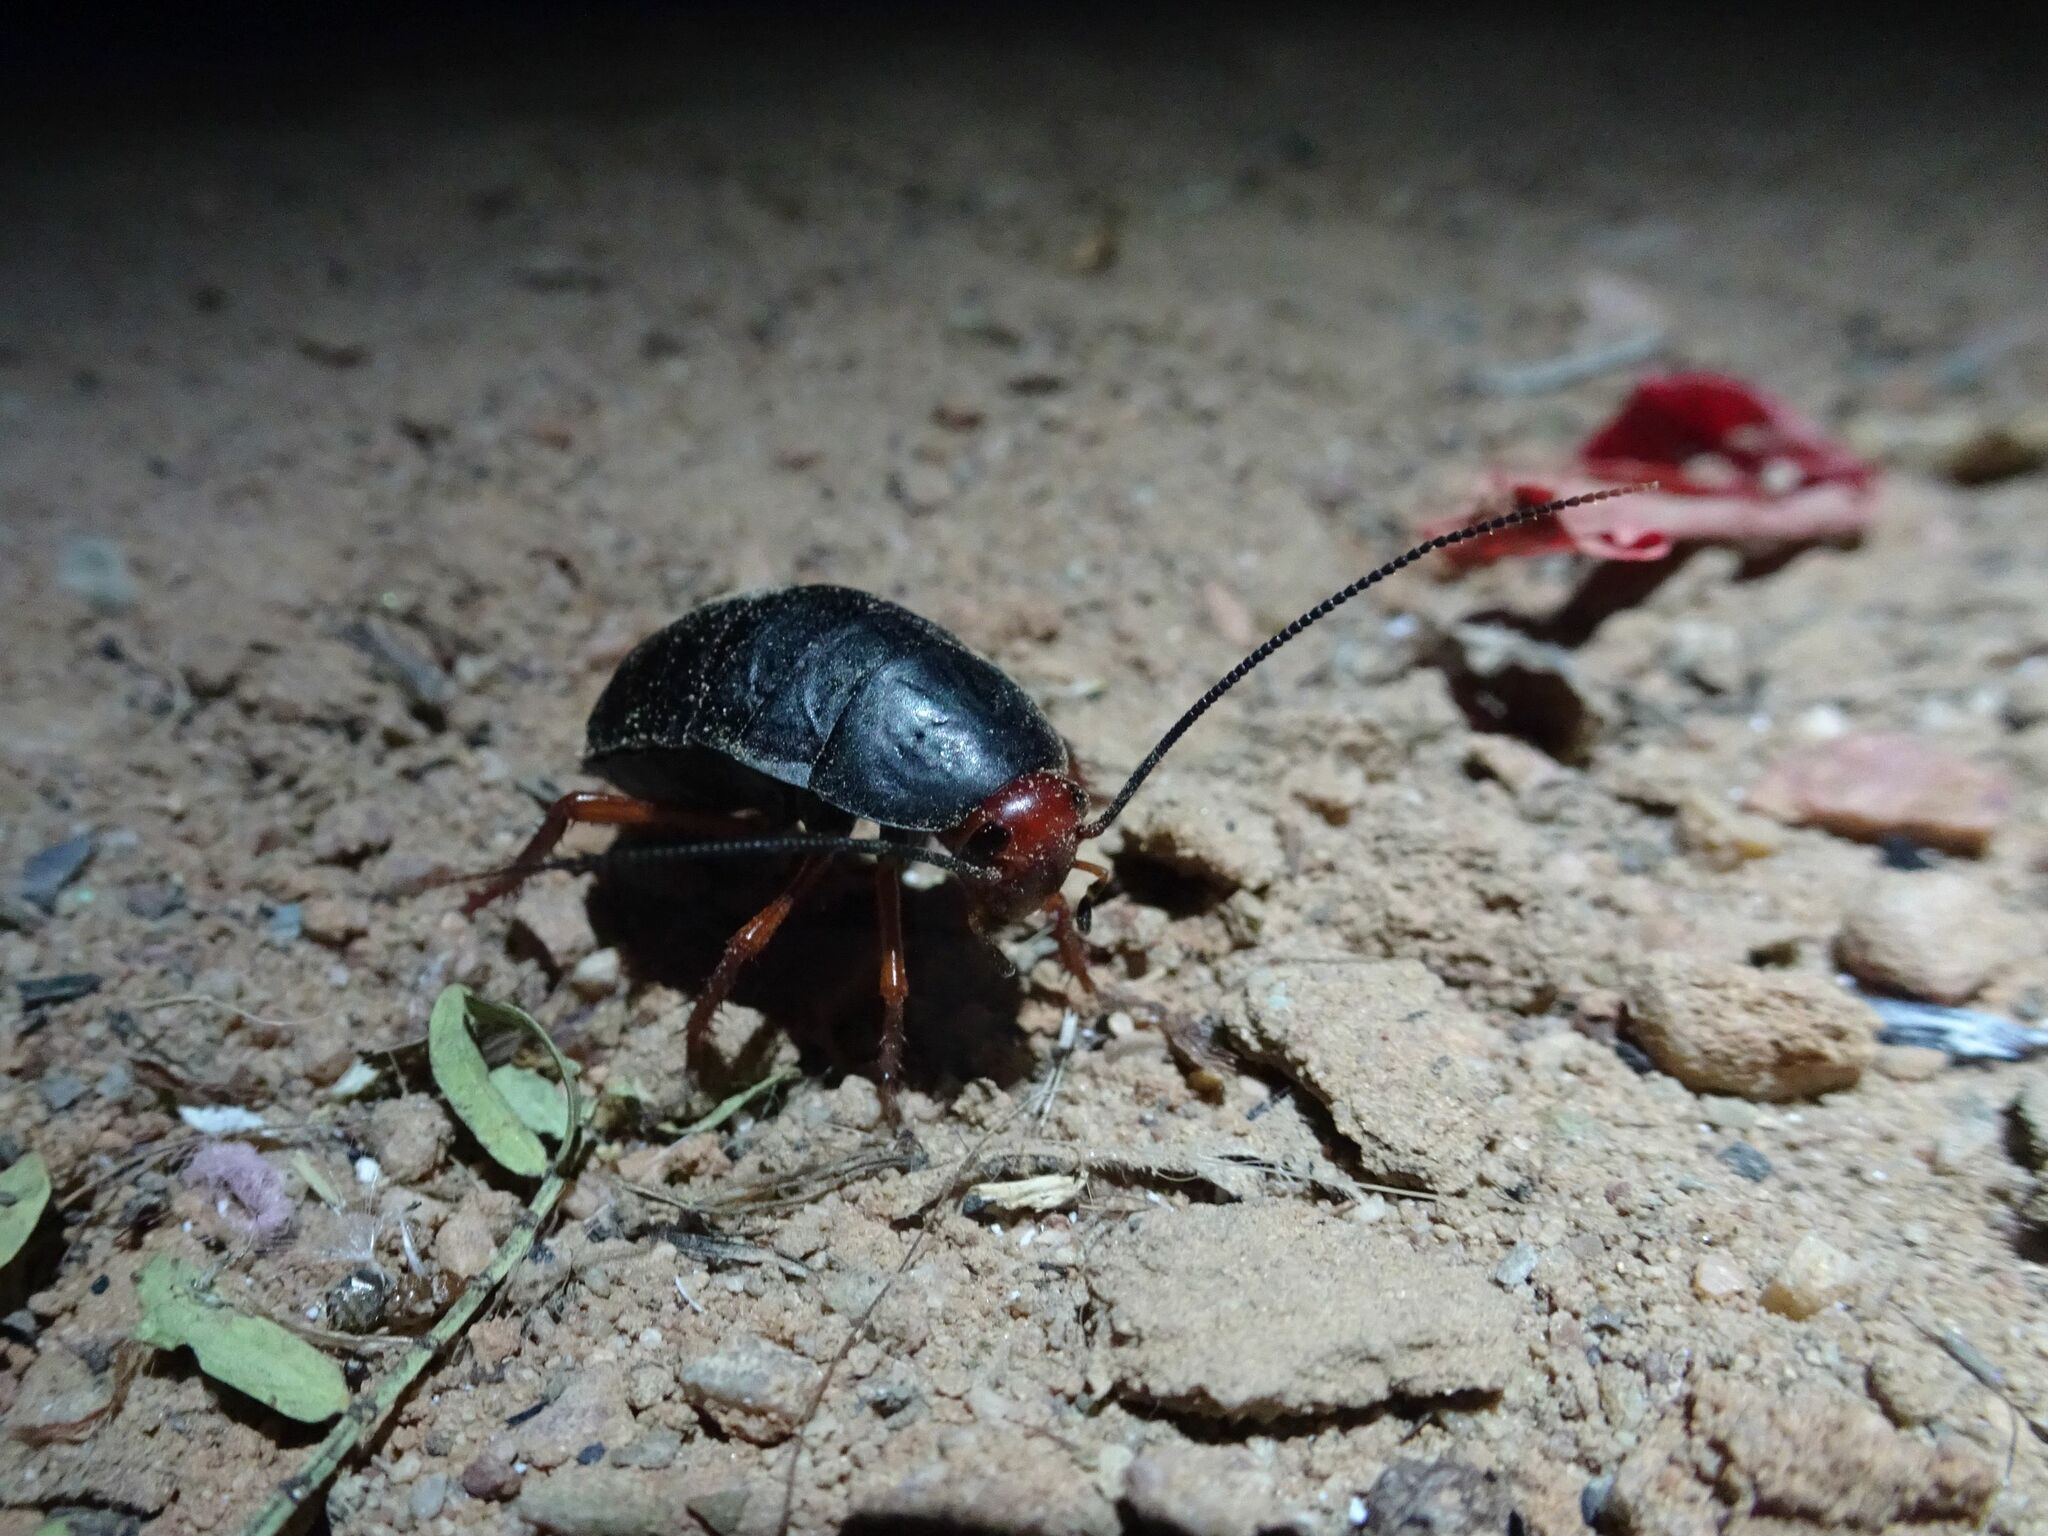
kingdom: Animalia
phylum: Arthropoda
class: Insecta
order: Blattodea
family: Blattidae
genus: Deropeltis
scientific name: Deropeltis erythrocephala
